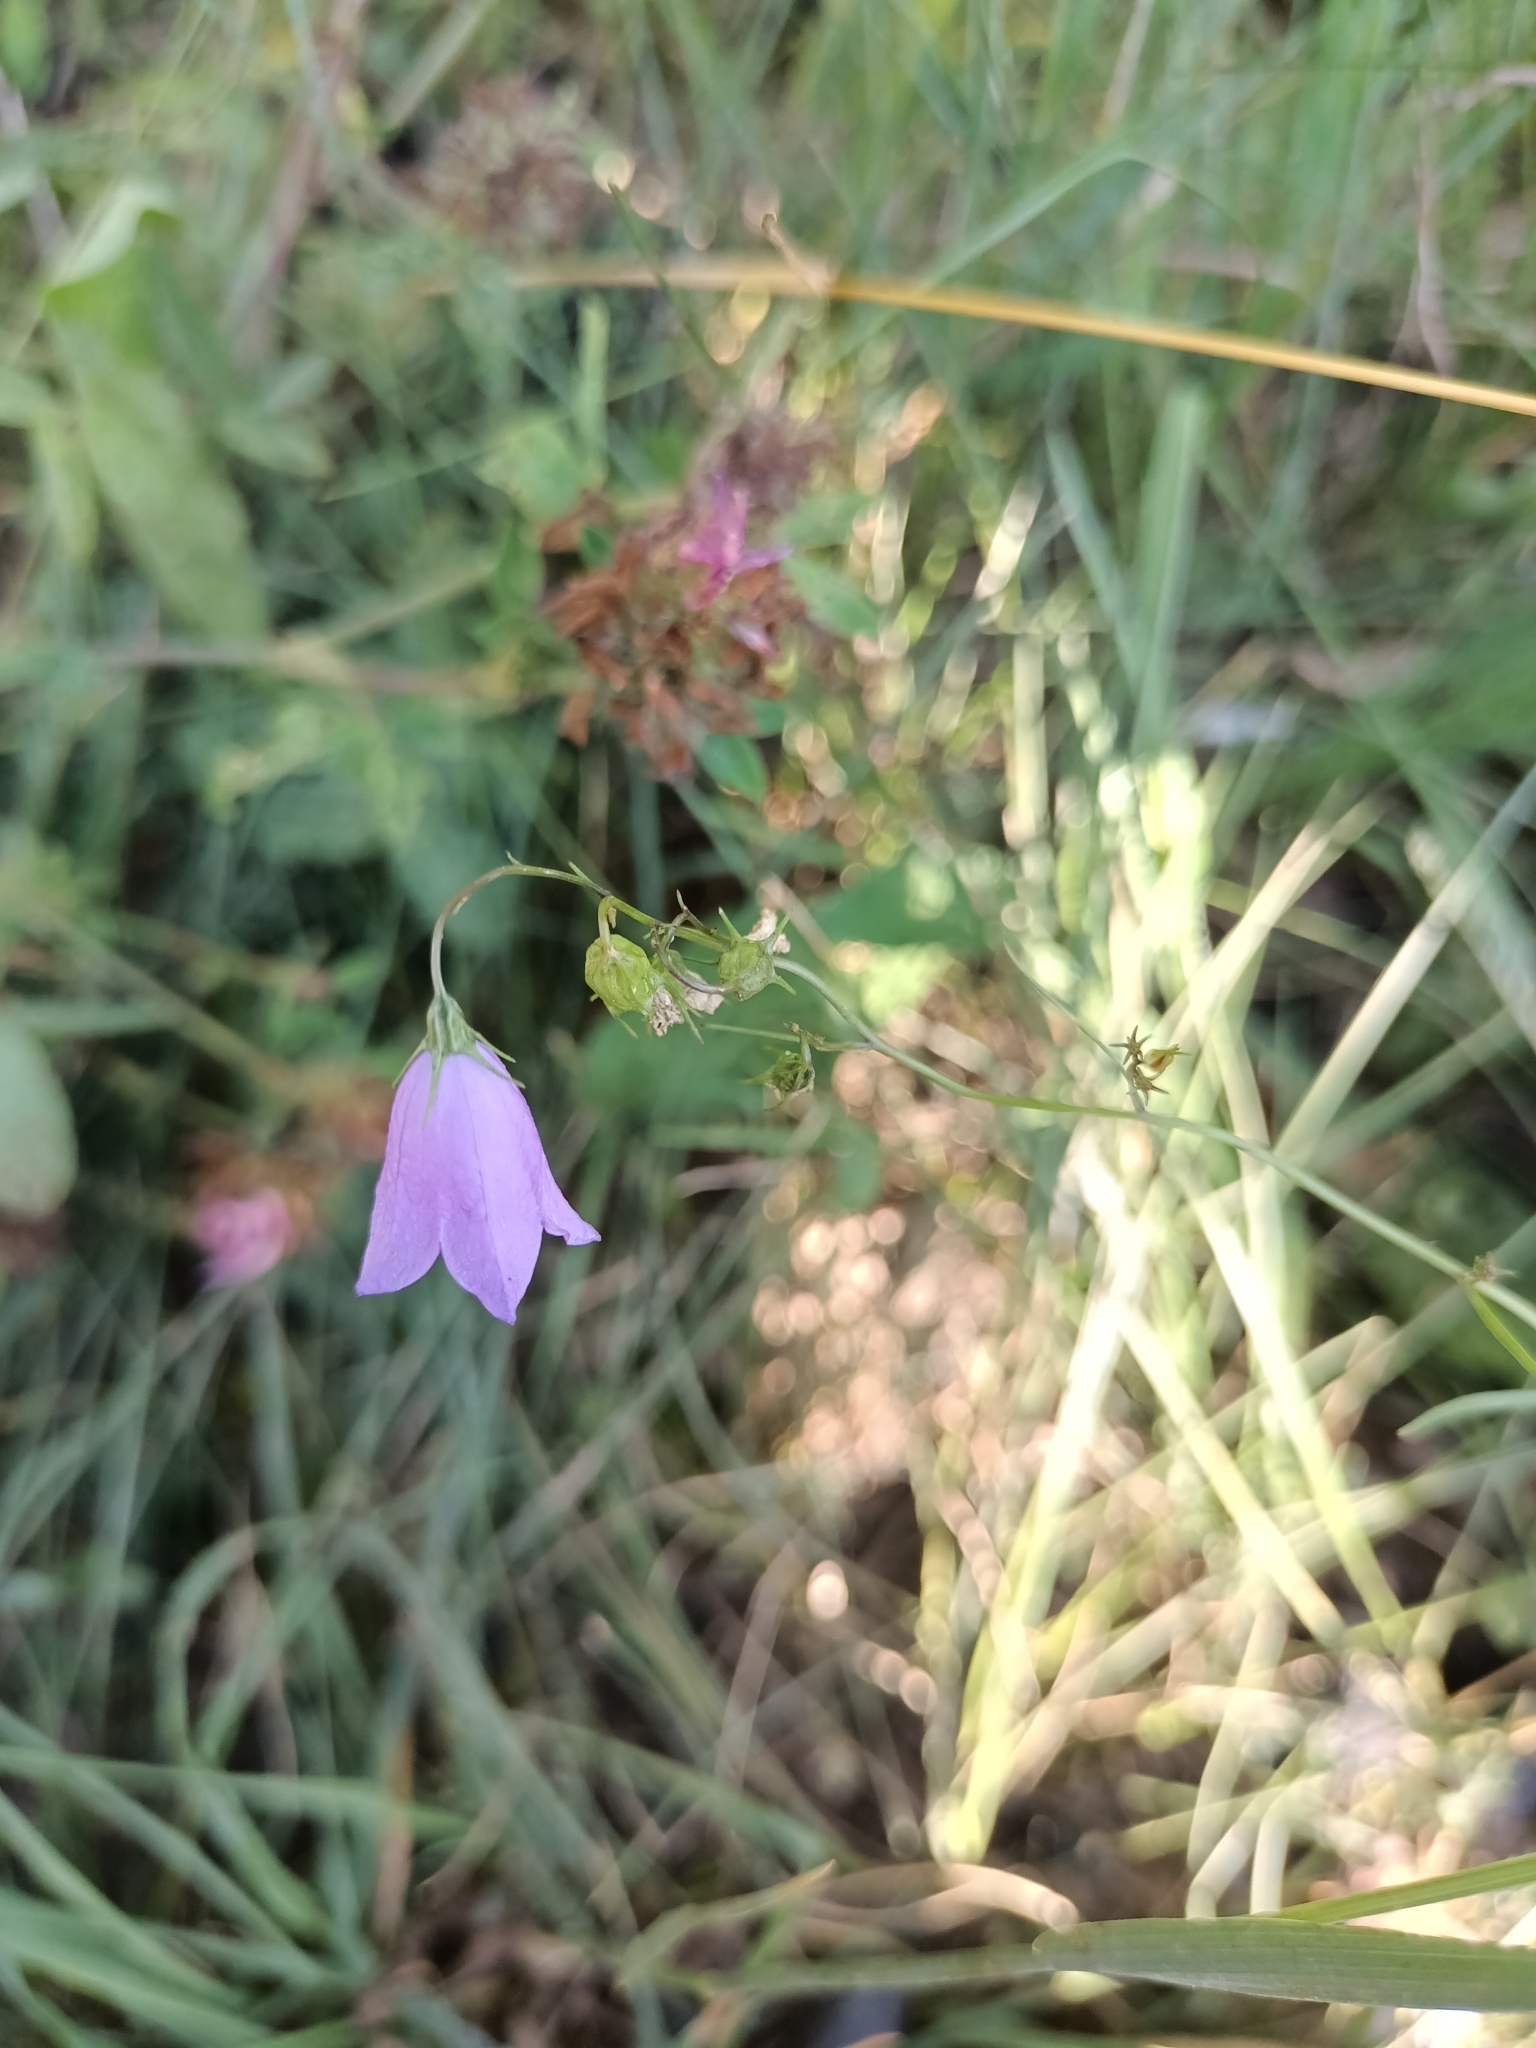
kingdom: Plantae
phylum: Tracheophyta
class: Magnoliopsida
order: Asterales
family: Campanulaceae
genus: Campanula
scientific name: Campanula rotundifolia
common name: Harebell
